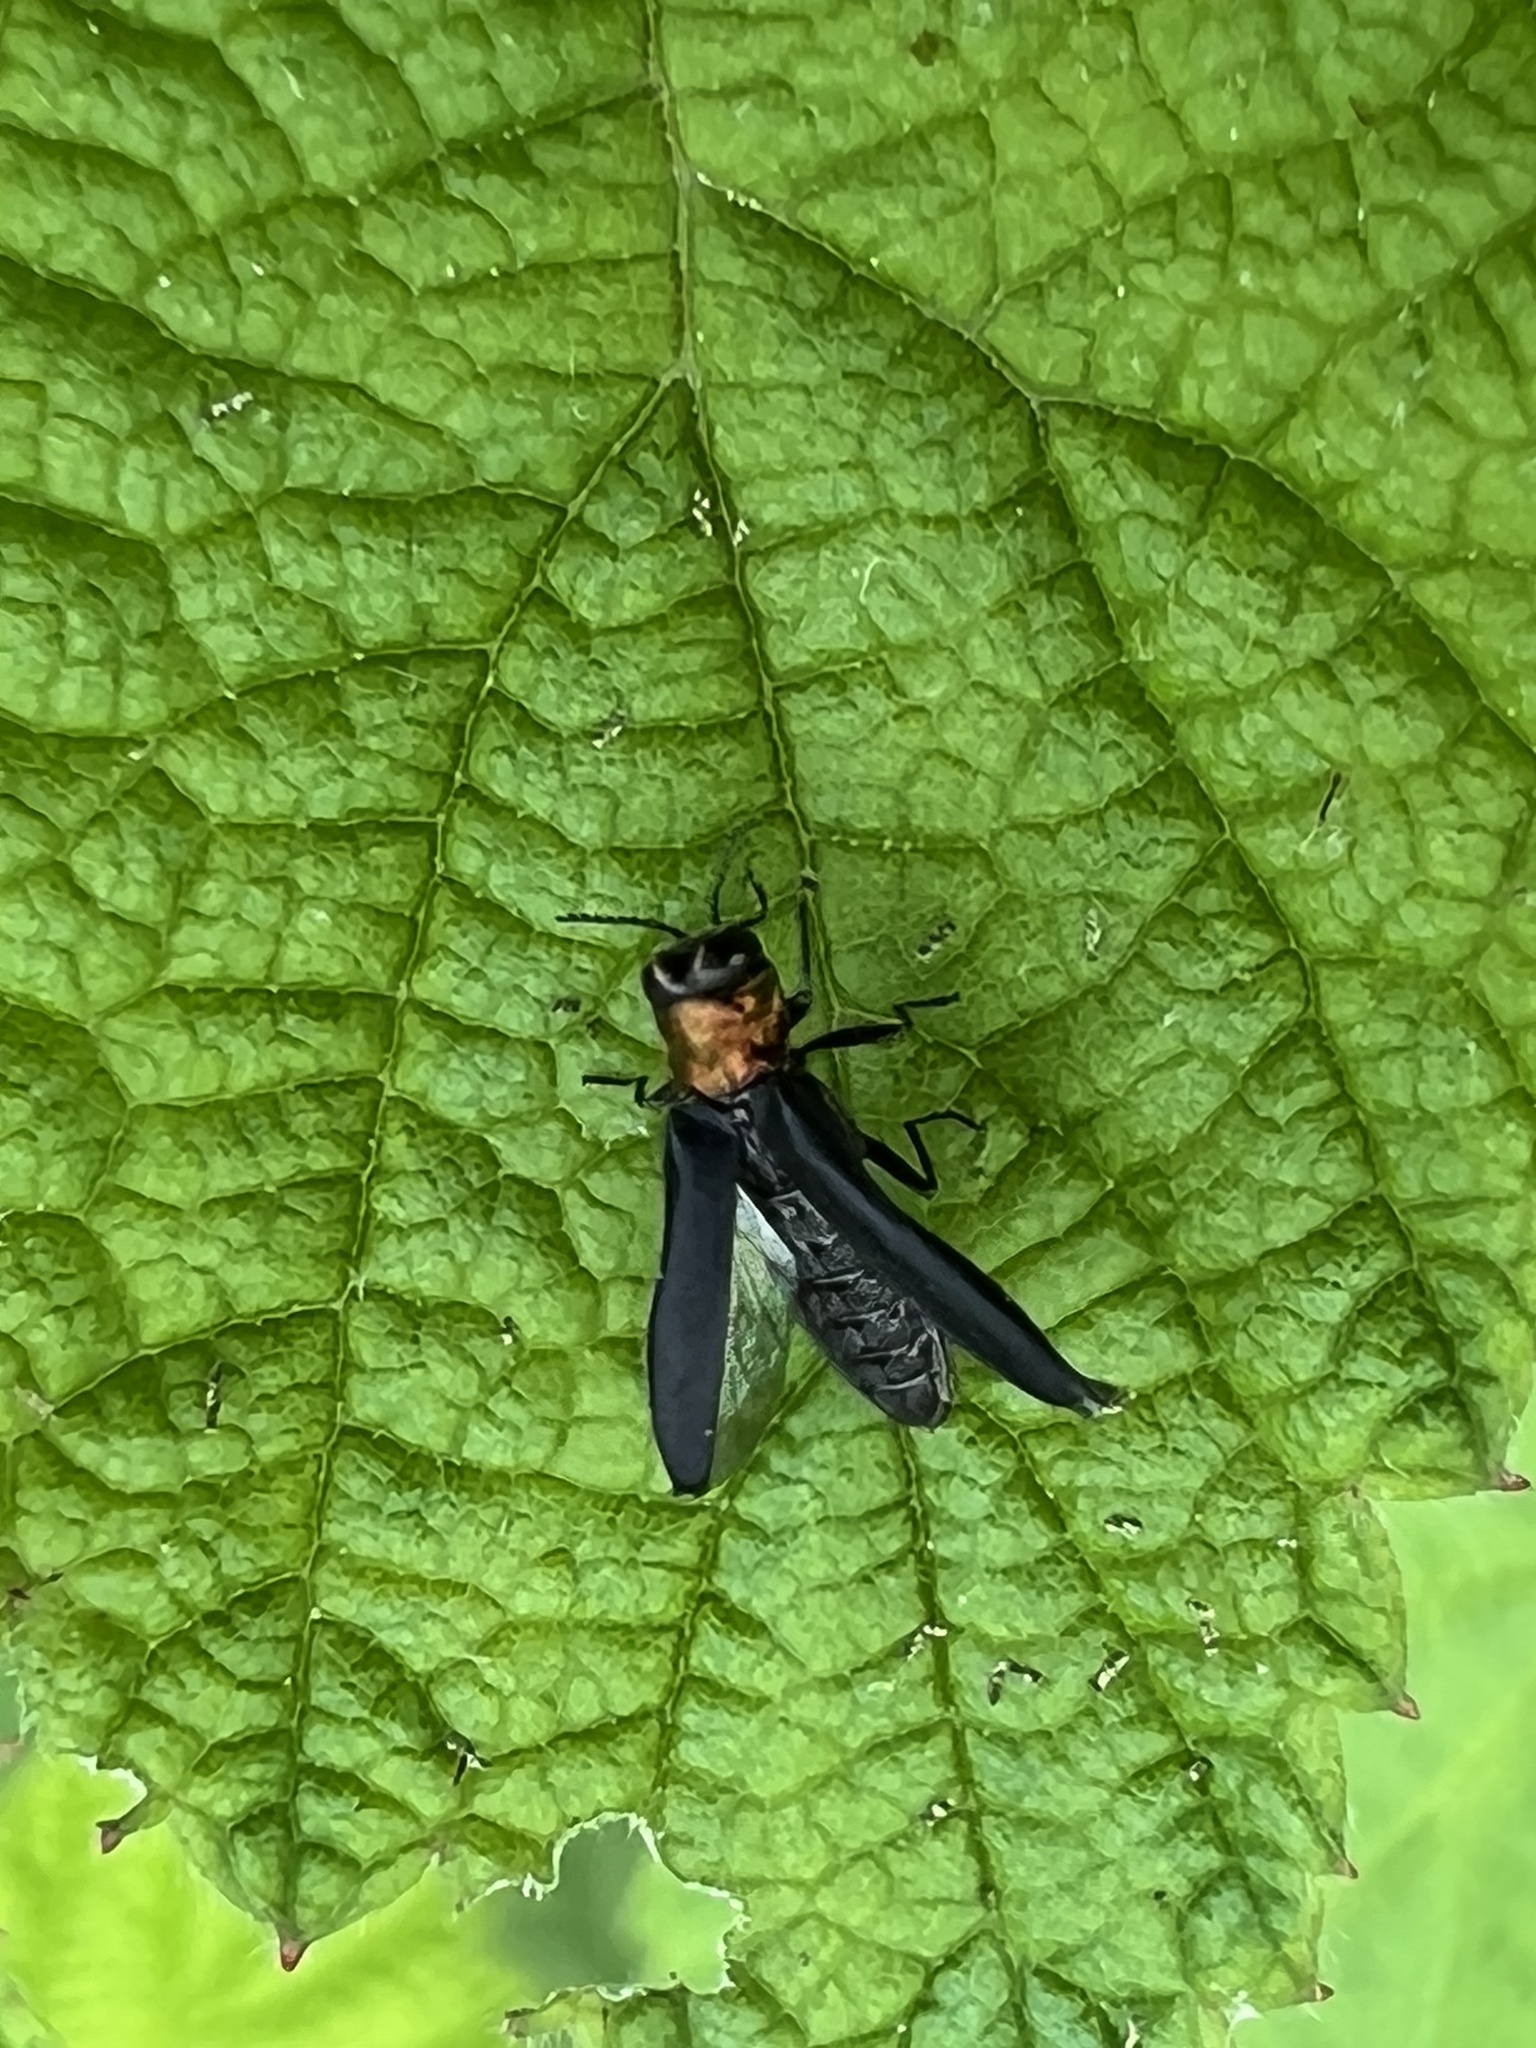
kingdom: Animalia
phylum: Arthropoda
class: Insecta
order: Coleoptera
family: Buprestidae
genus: Agrilus
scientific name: Agrilus ruficollis
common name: Red-necked cane borer beetle
